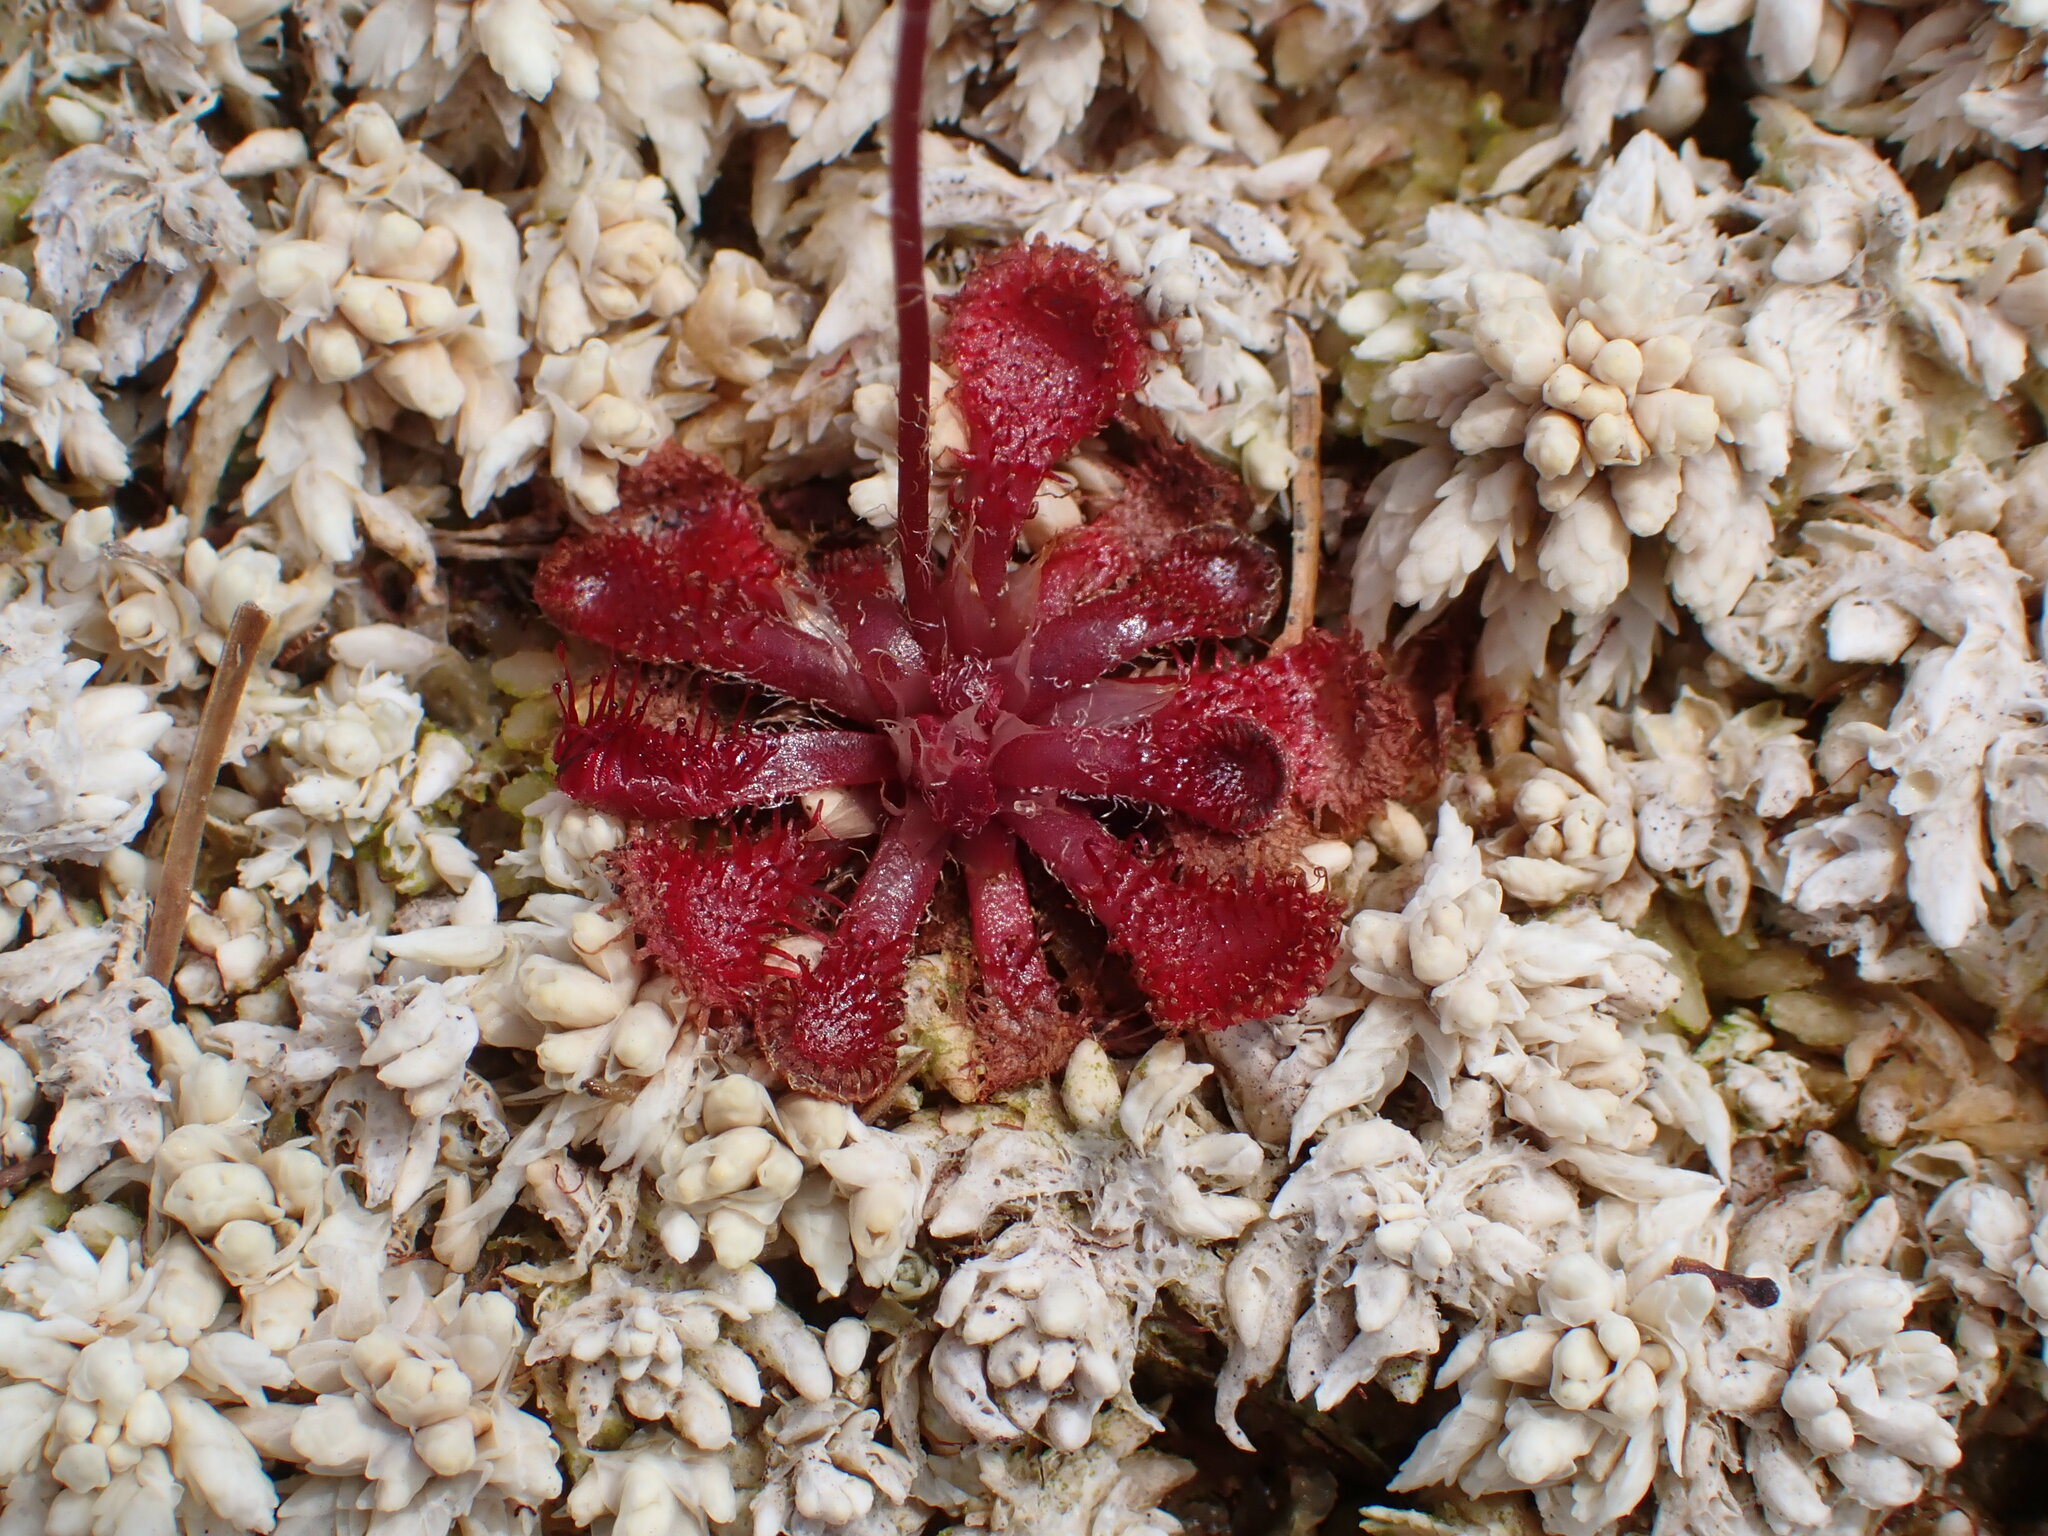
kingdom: Plantae
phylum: Tracheophyta
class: Magnoliopsida
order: Caryophyllales
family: Droseraceae
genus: Drosera
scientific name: Drosera spatulata
